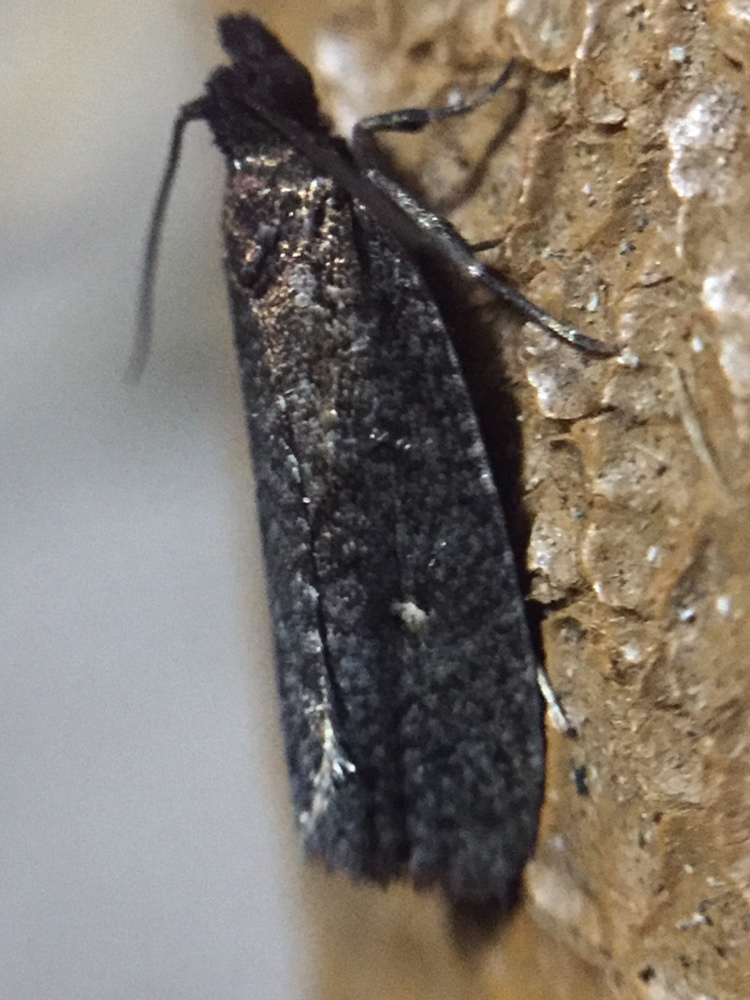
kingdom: Animalia
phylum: Arthropoda
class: Insecta
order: Lepidoptera
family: Tortricidae
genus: Cryptaspasma
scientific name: Cryptaspasma querula
